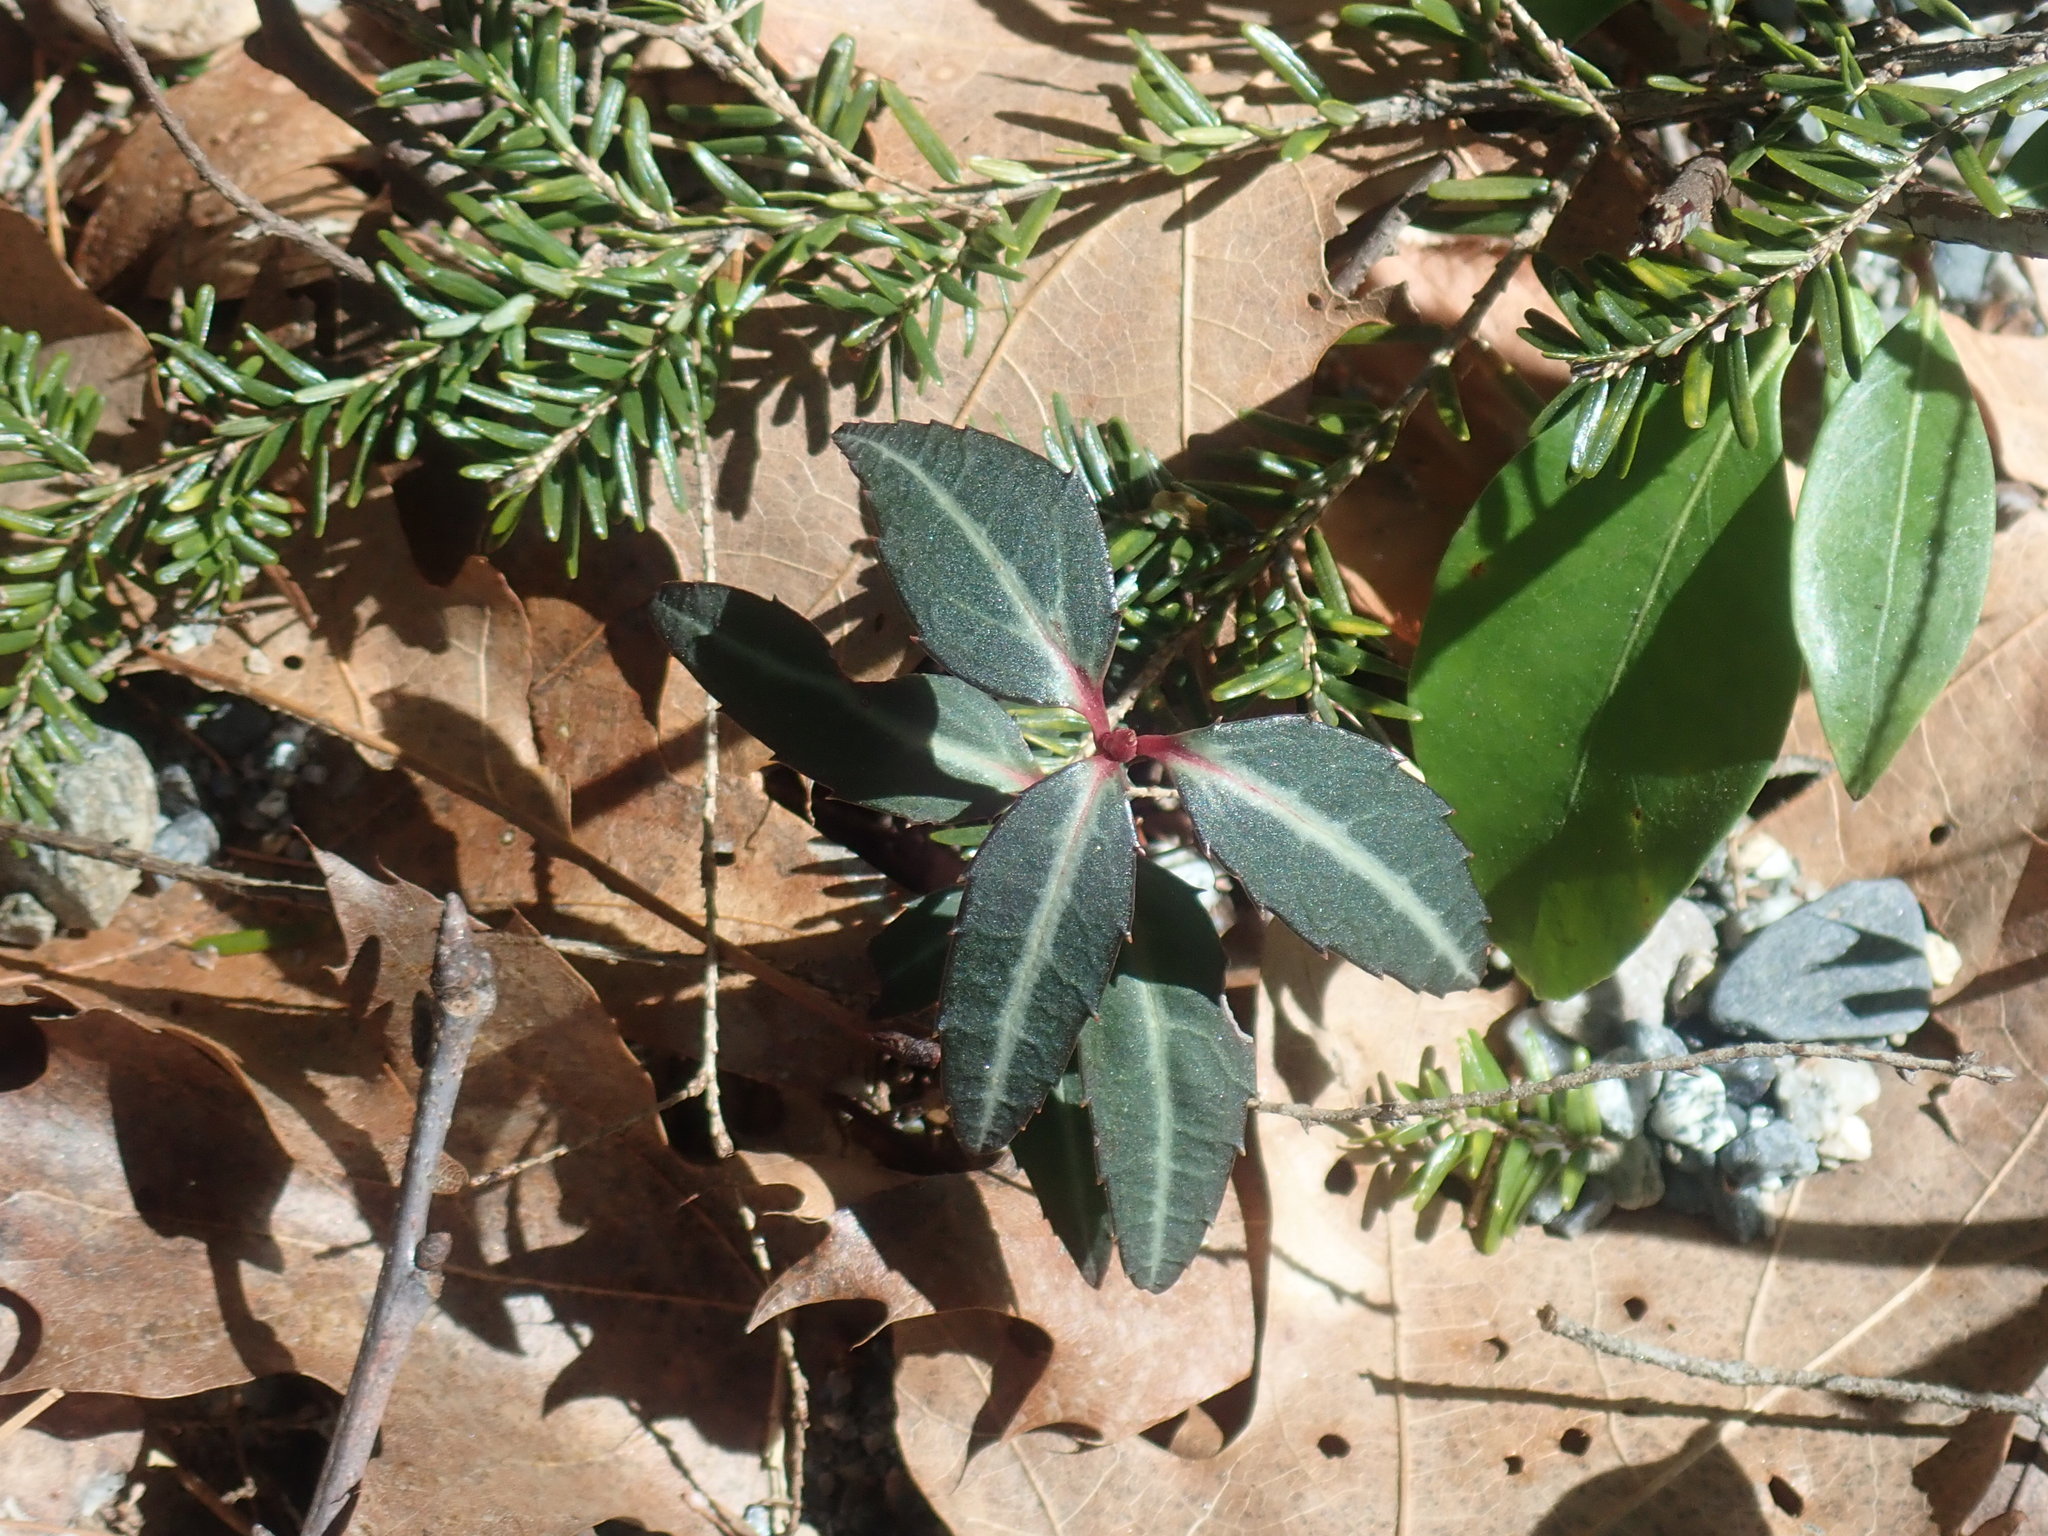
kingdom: Plantae
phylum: Tracheophyta
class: Magnoliopsida
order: Ericales
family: Ericaceae
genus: Chimaphila
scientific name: Chimaphila maculata
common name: Spotted pipsissewa
